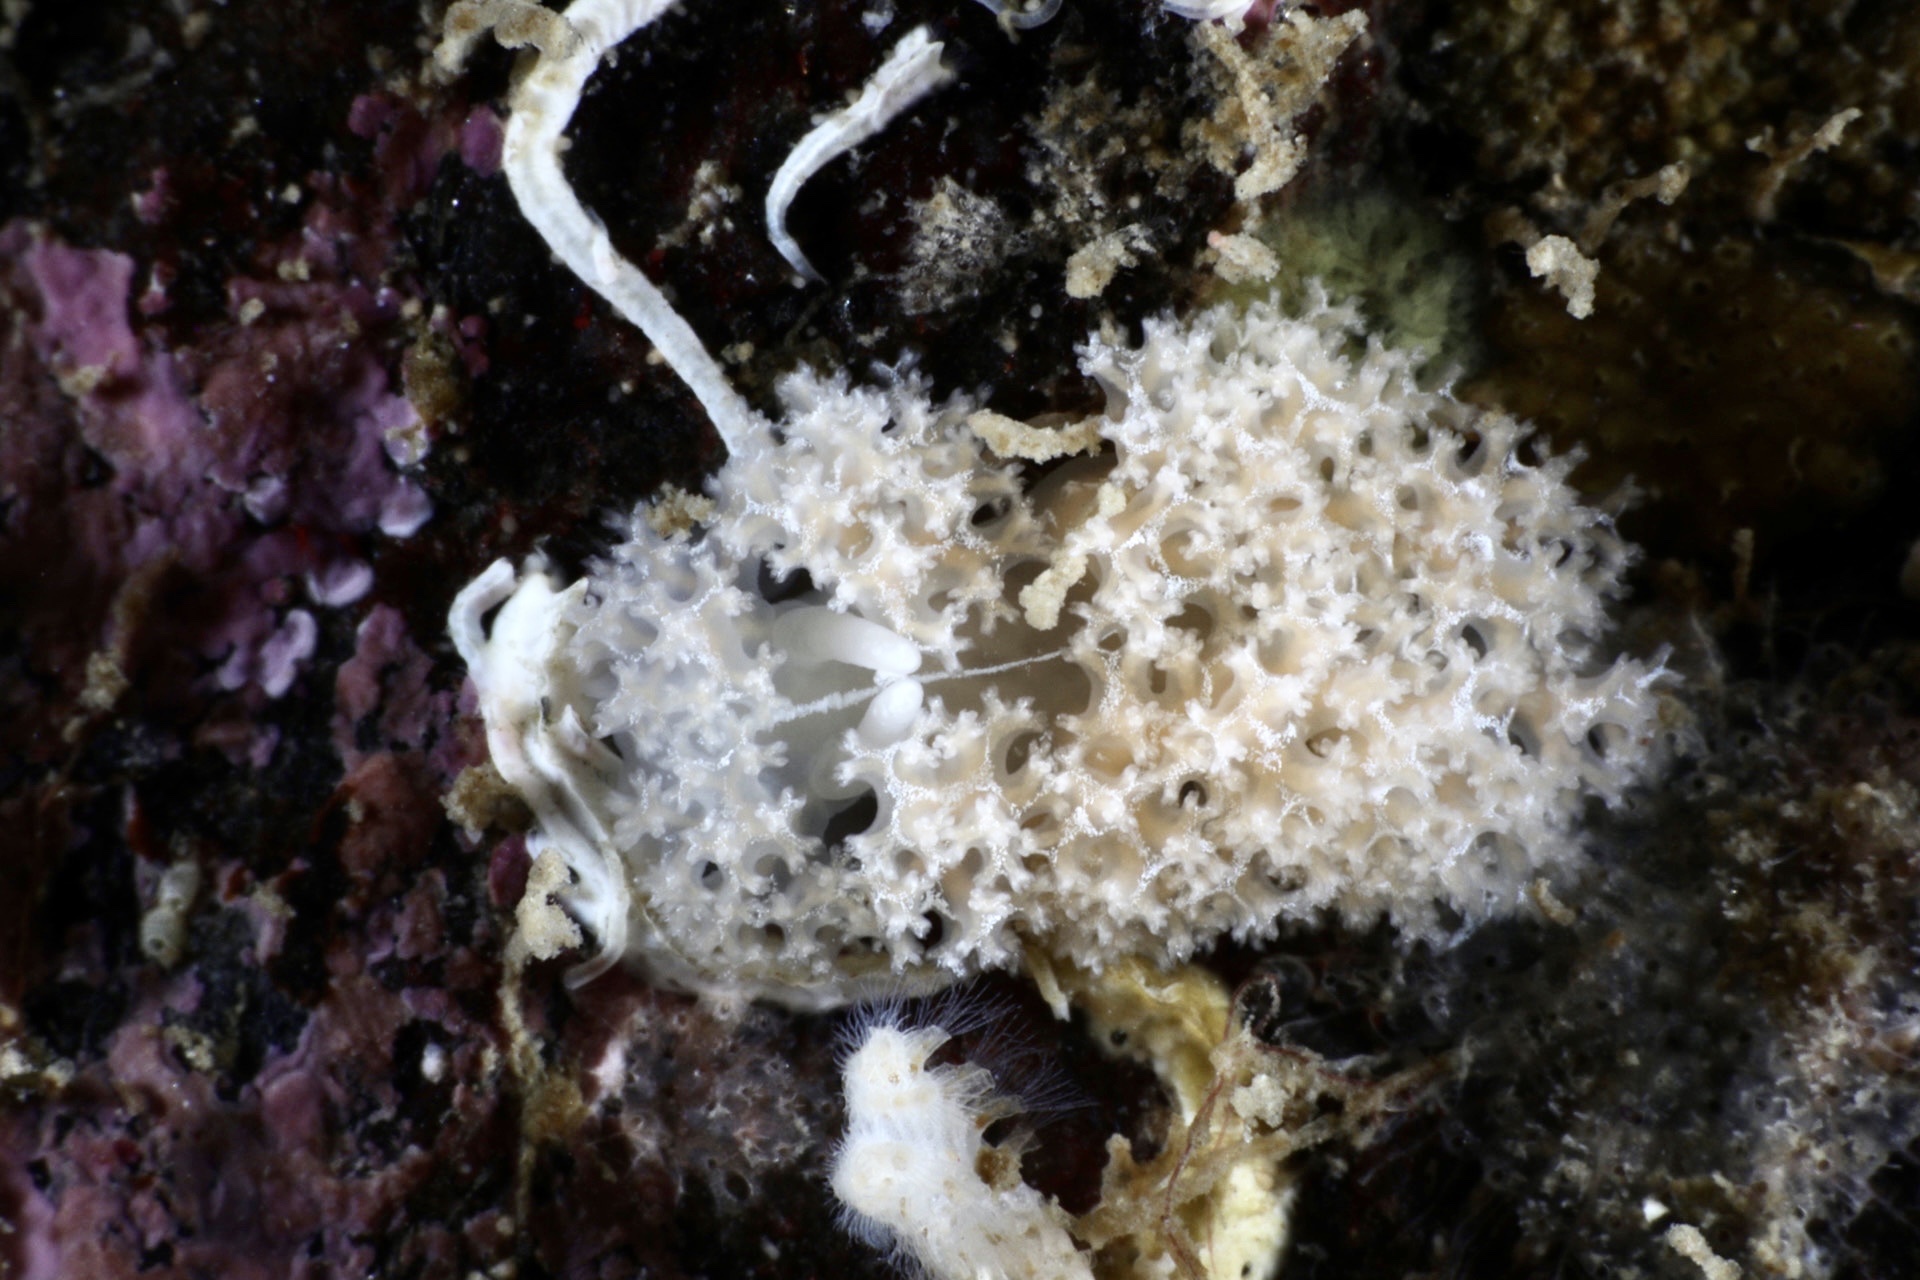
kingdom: Animalia
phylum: Mollusca
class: Gastropoda
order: Nudibranchia
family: Heroidae
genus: Hero
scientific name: Hero formosa
